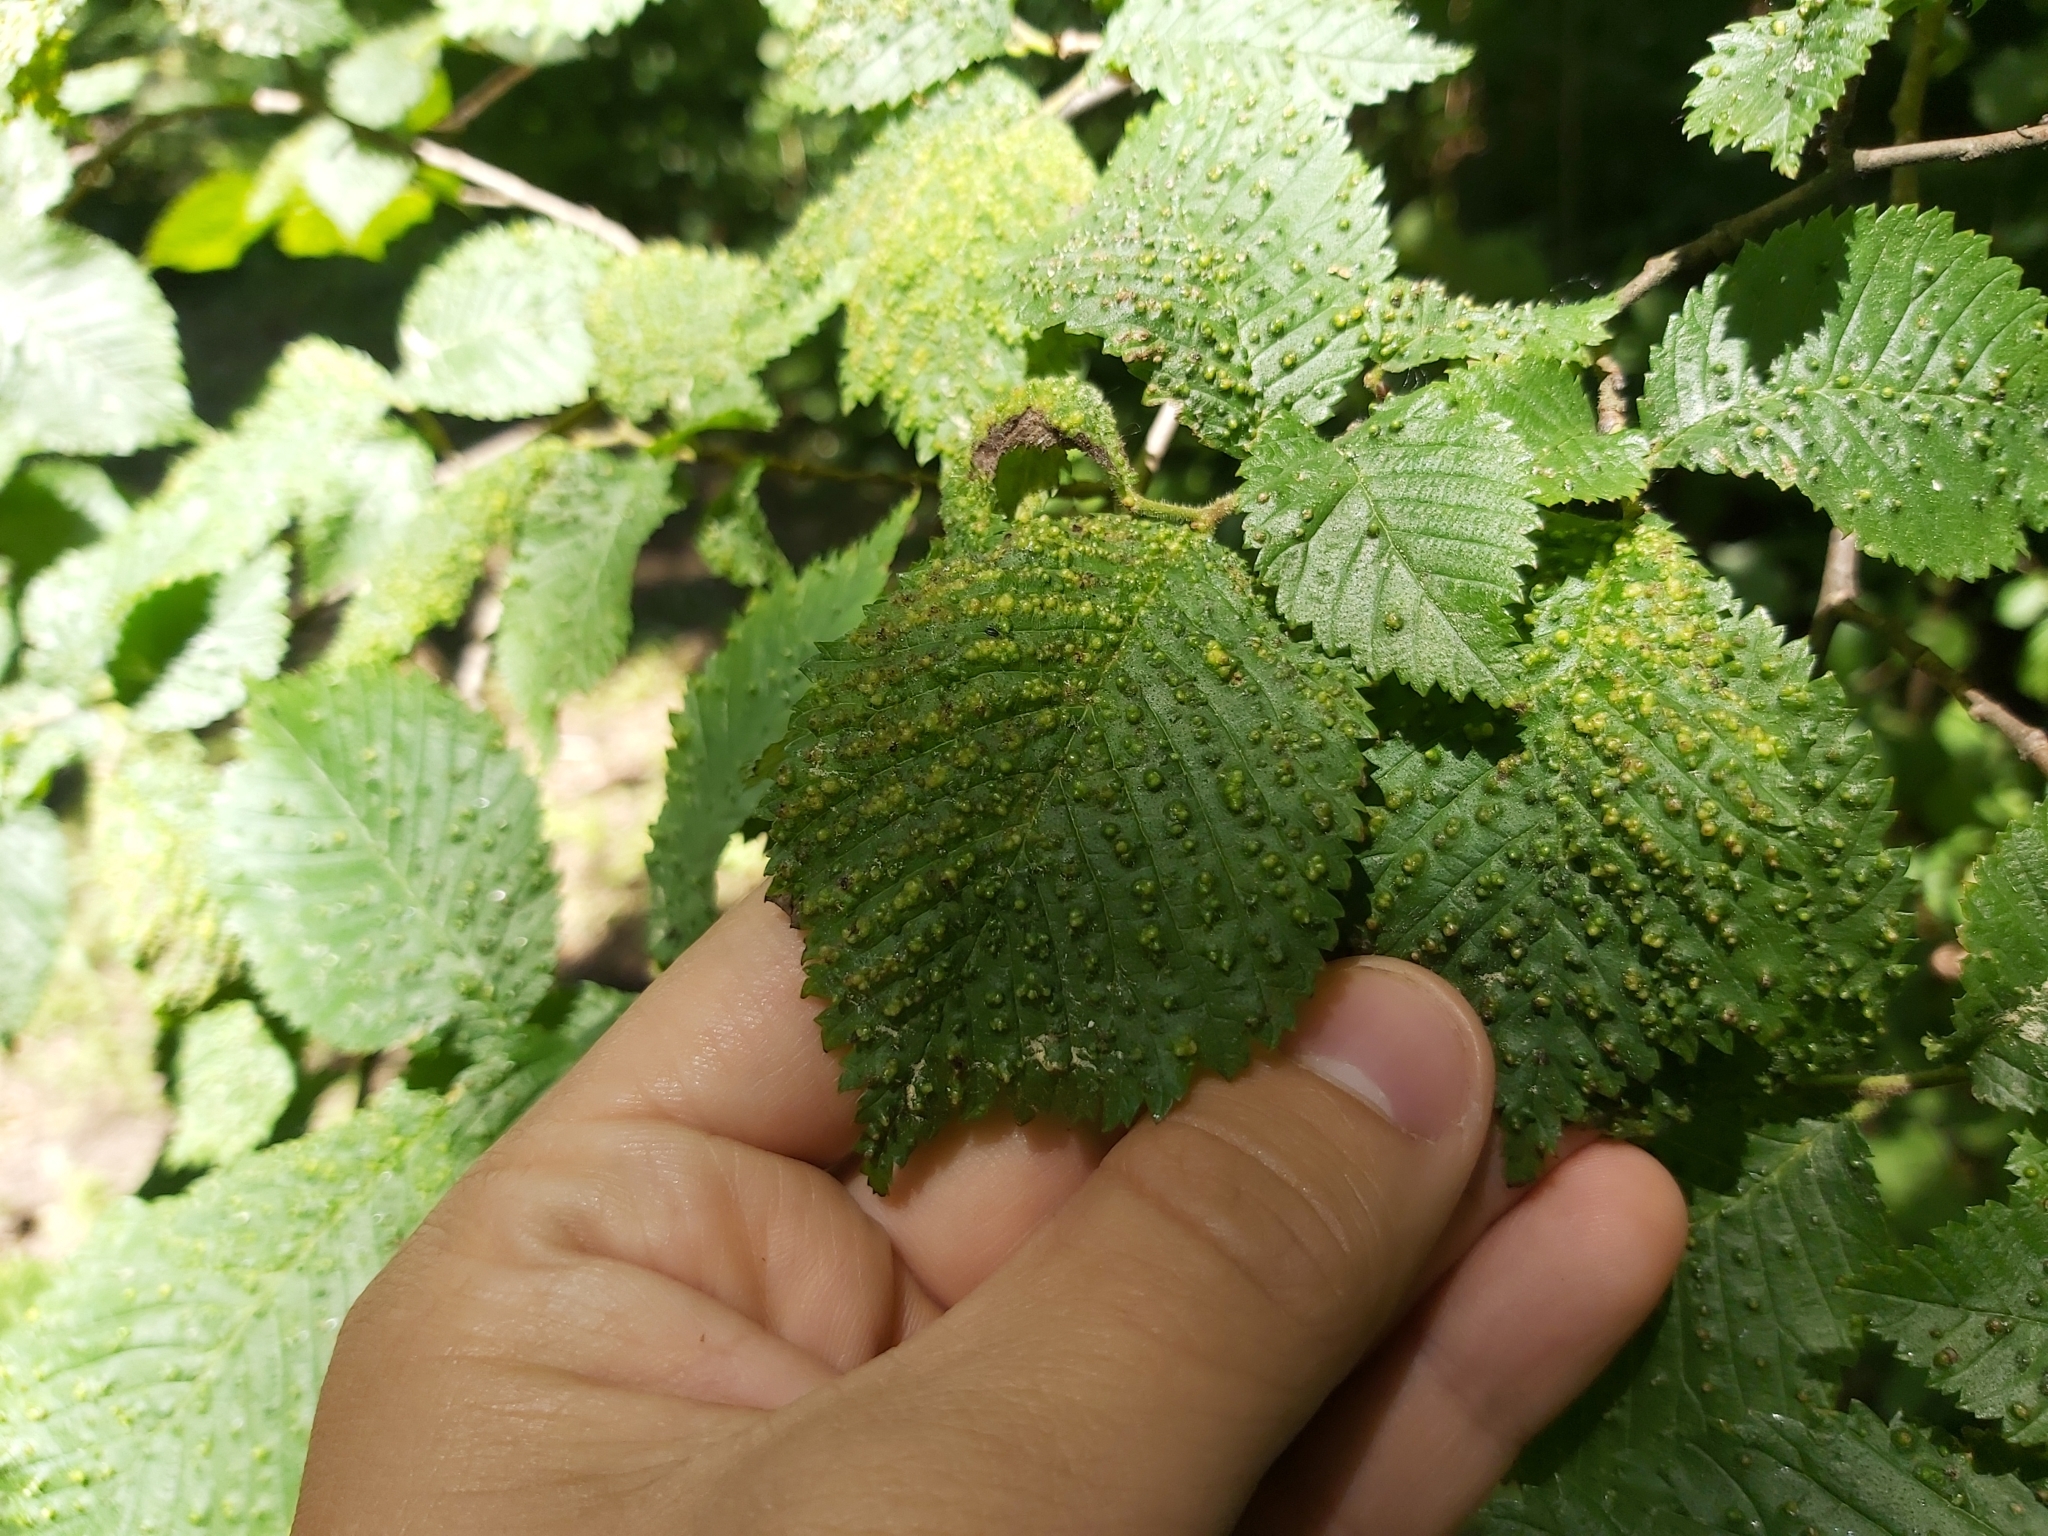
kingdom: Animalia
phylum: Arthropoda
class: Arachnida
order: Trombidiformes
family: Eriophyidae
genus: Aceria
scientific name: Aceria brevipunctata
